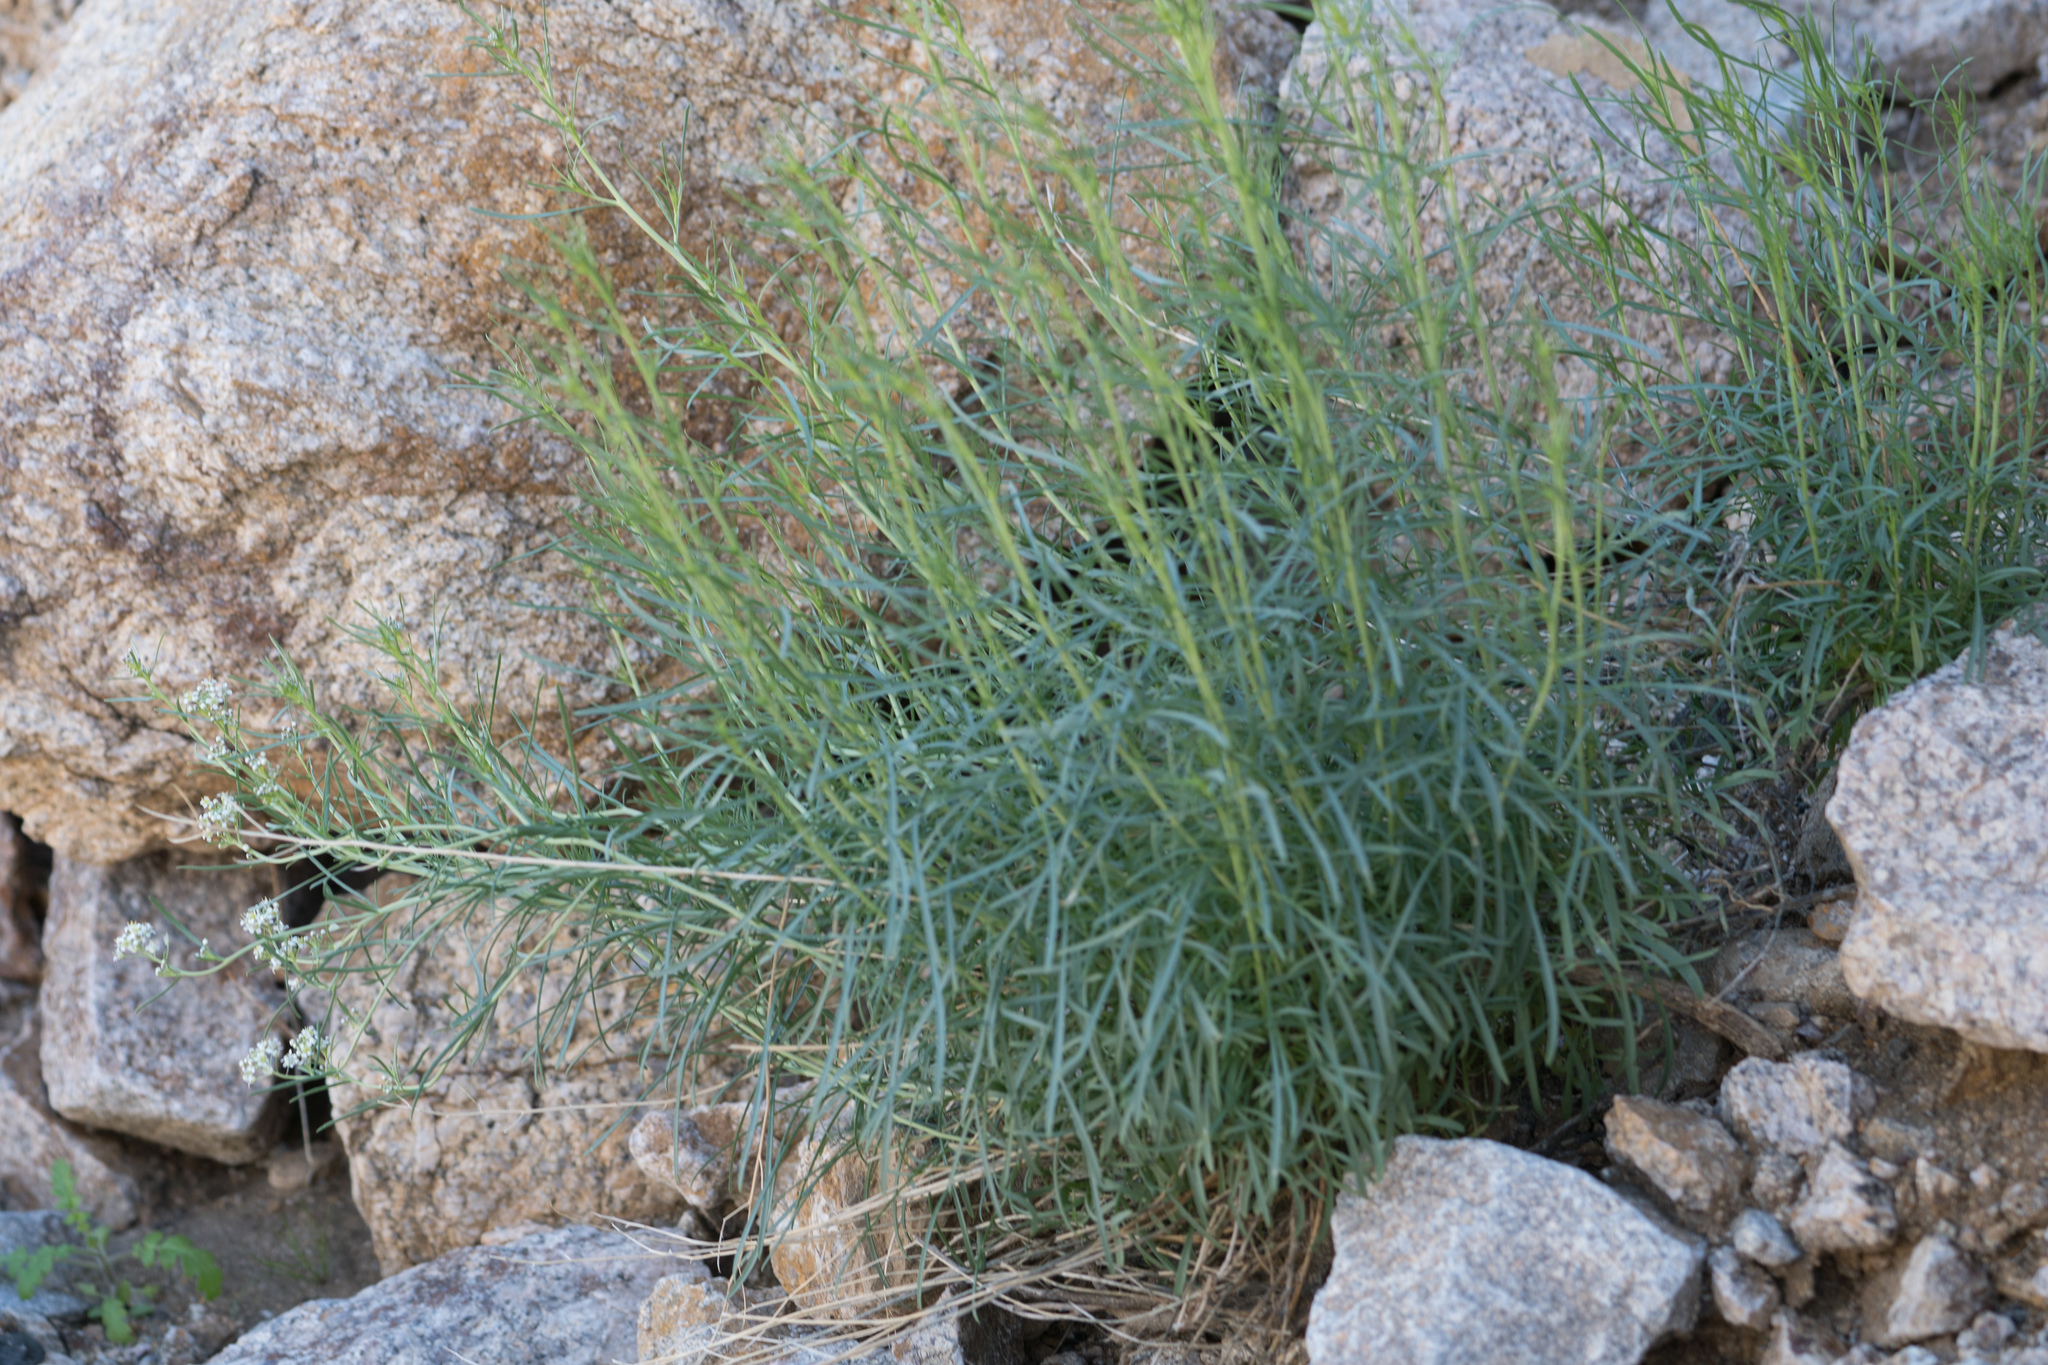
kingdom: Plantae
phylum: Tracheophyta
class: Magnoliopsida
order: Brassicales
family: Brassicaceae
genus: Lepidium
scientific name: Lepidium fremontii
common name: Fremont's pepperwort
